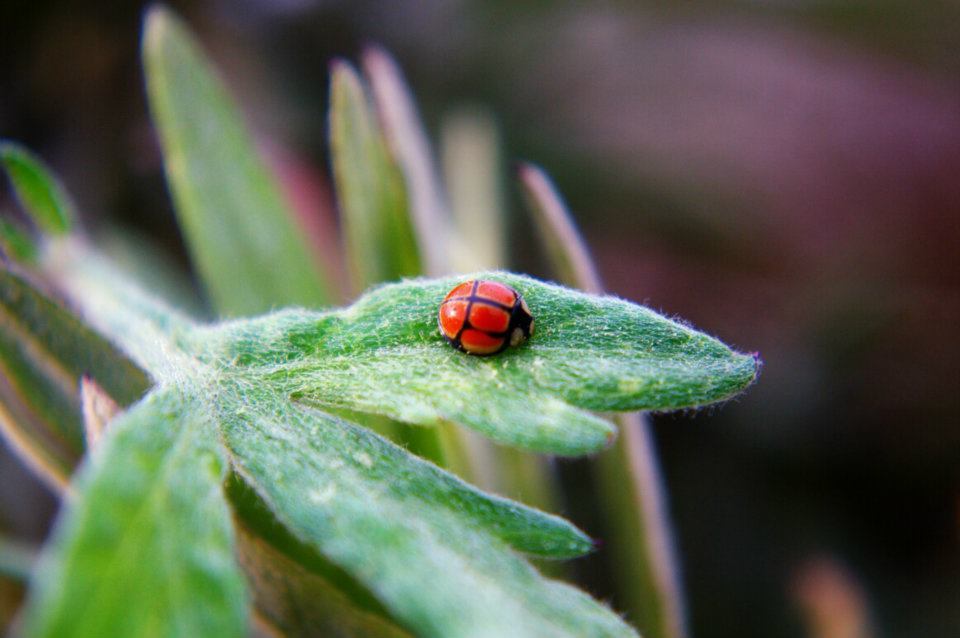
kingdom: Animalia
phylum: Arthropoda
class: Insecta
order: Coleoptera
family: Coccinellidae
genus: Oenopia
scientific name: Oenopia sexareata
